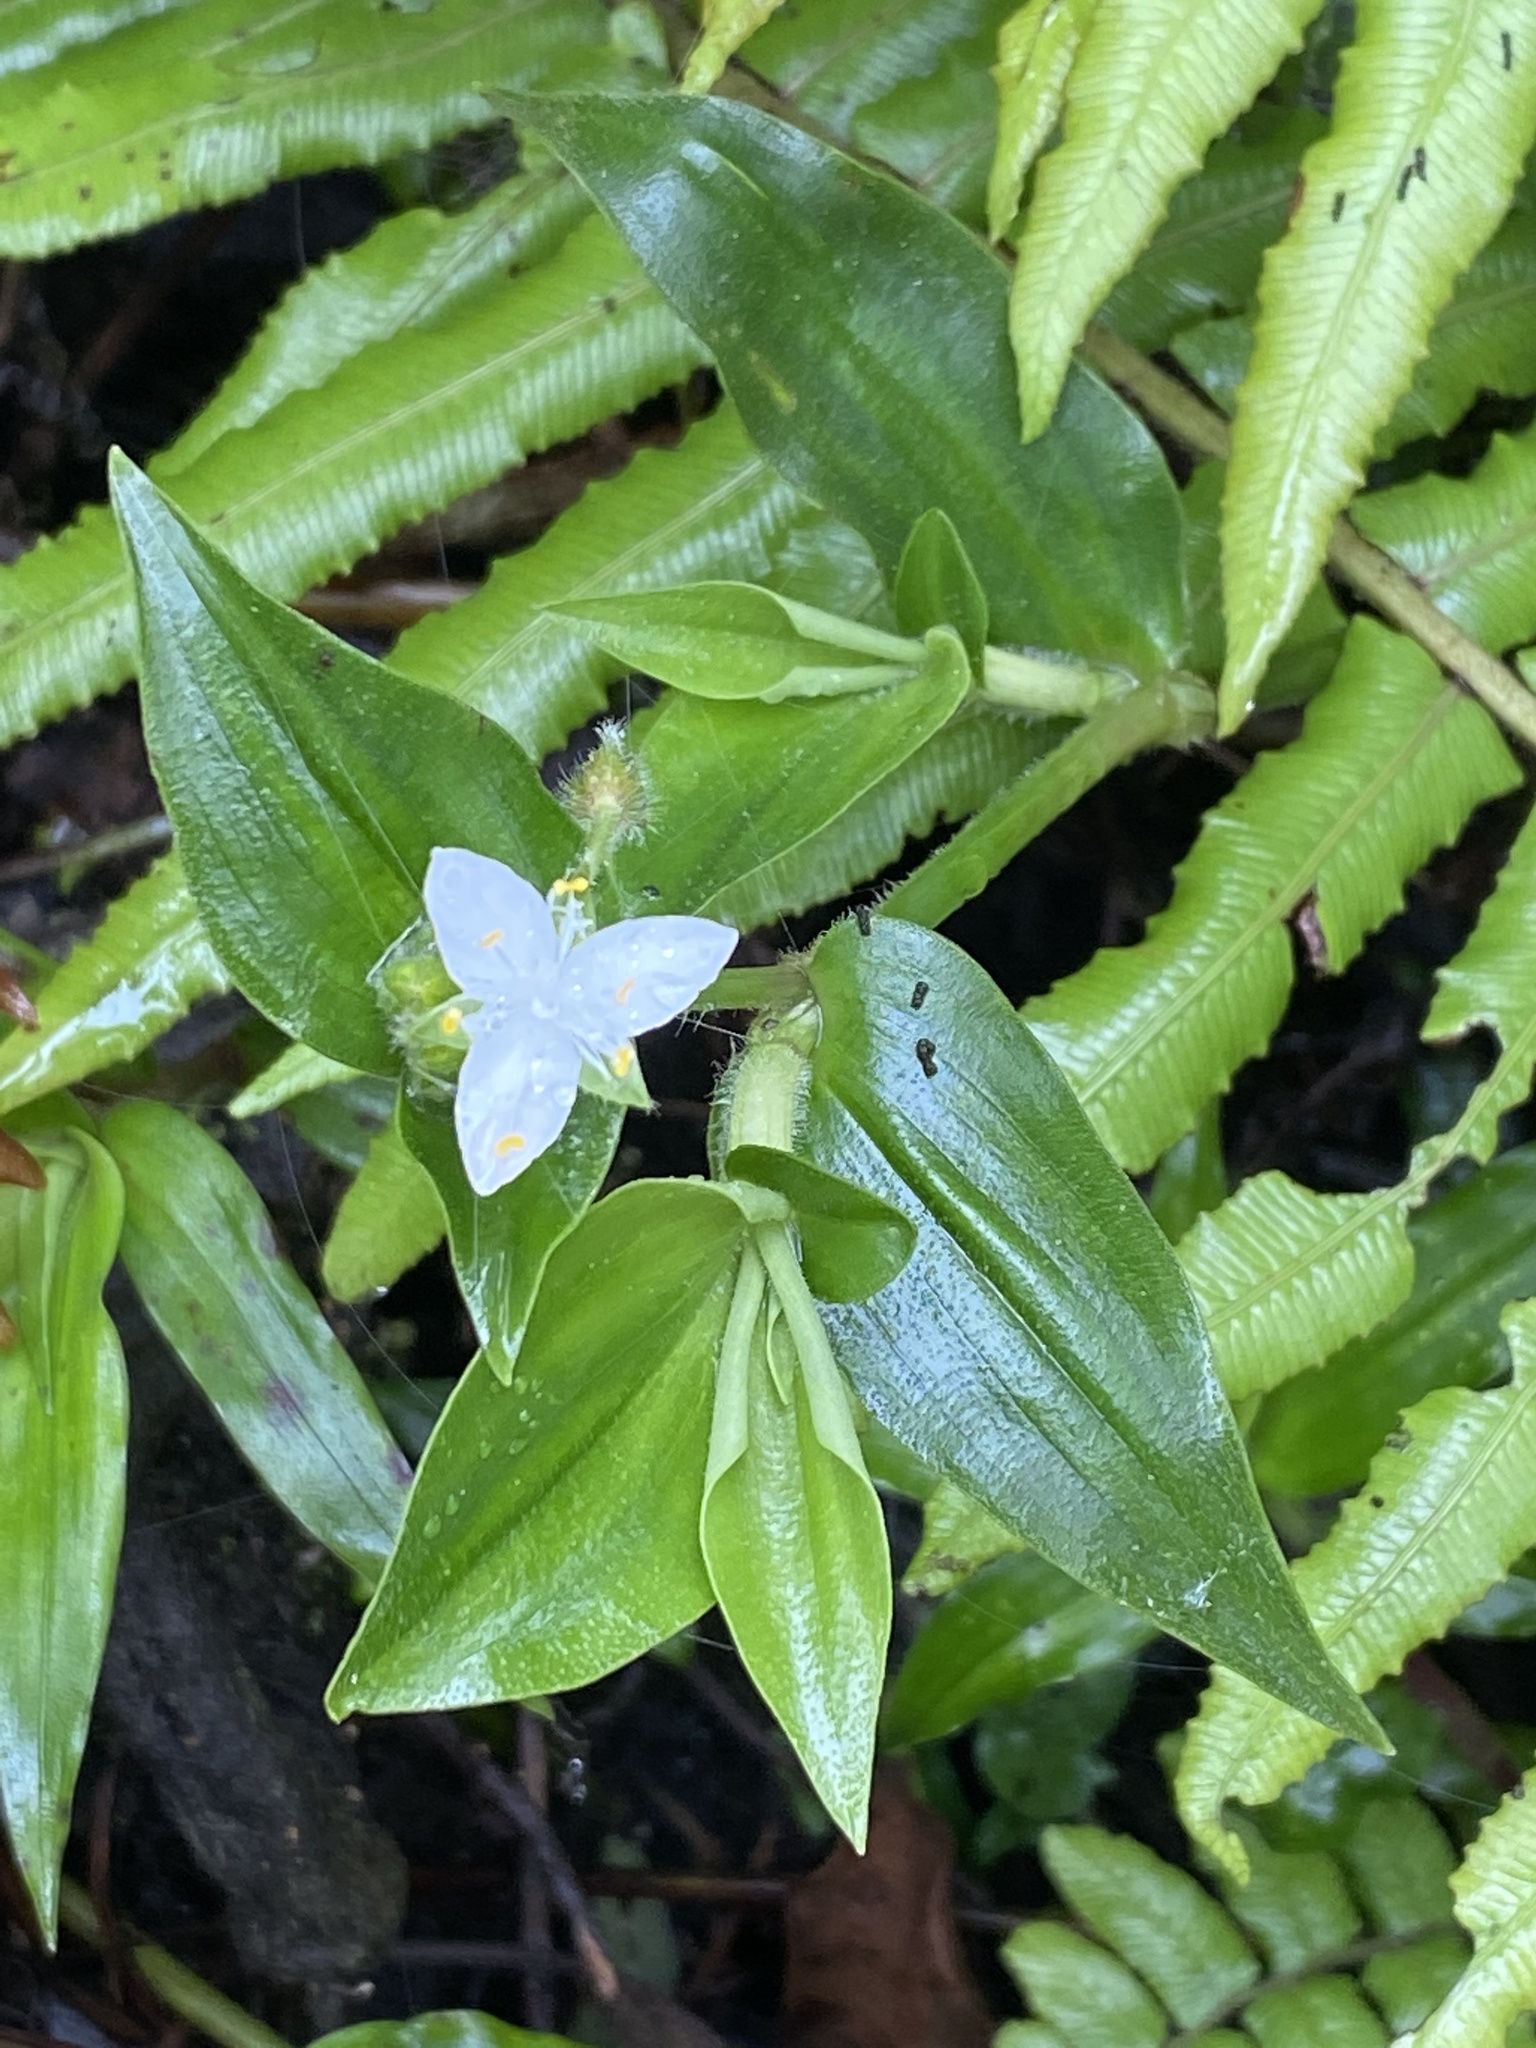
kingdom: Plantae
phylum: Tracheophyta
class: Liliopsida
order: Commelinales
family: Commelinaceae
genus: Tradescantia
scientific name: Tradescantia atlantica
